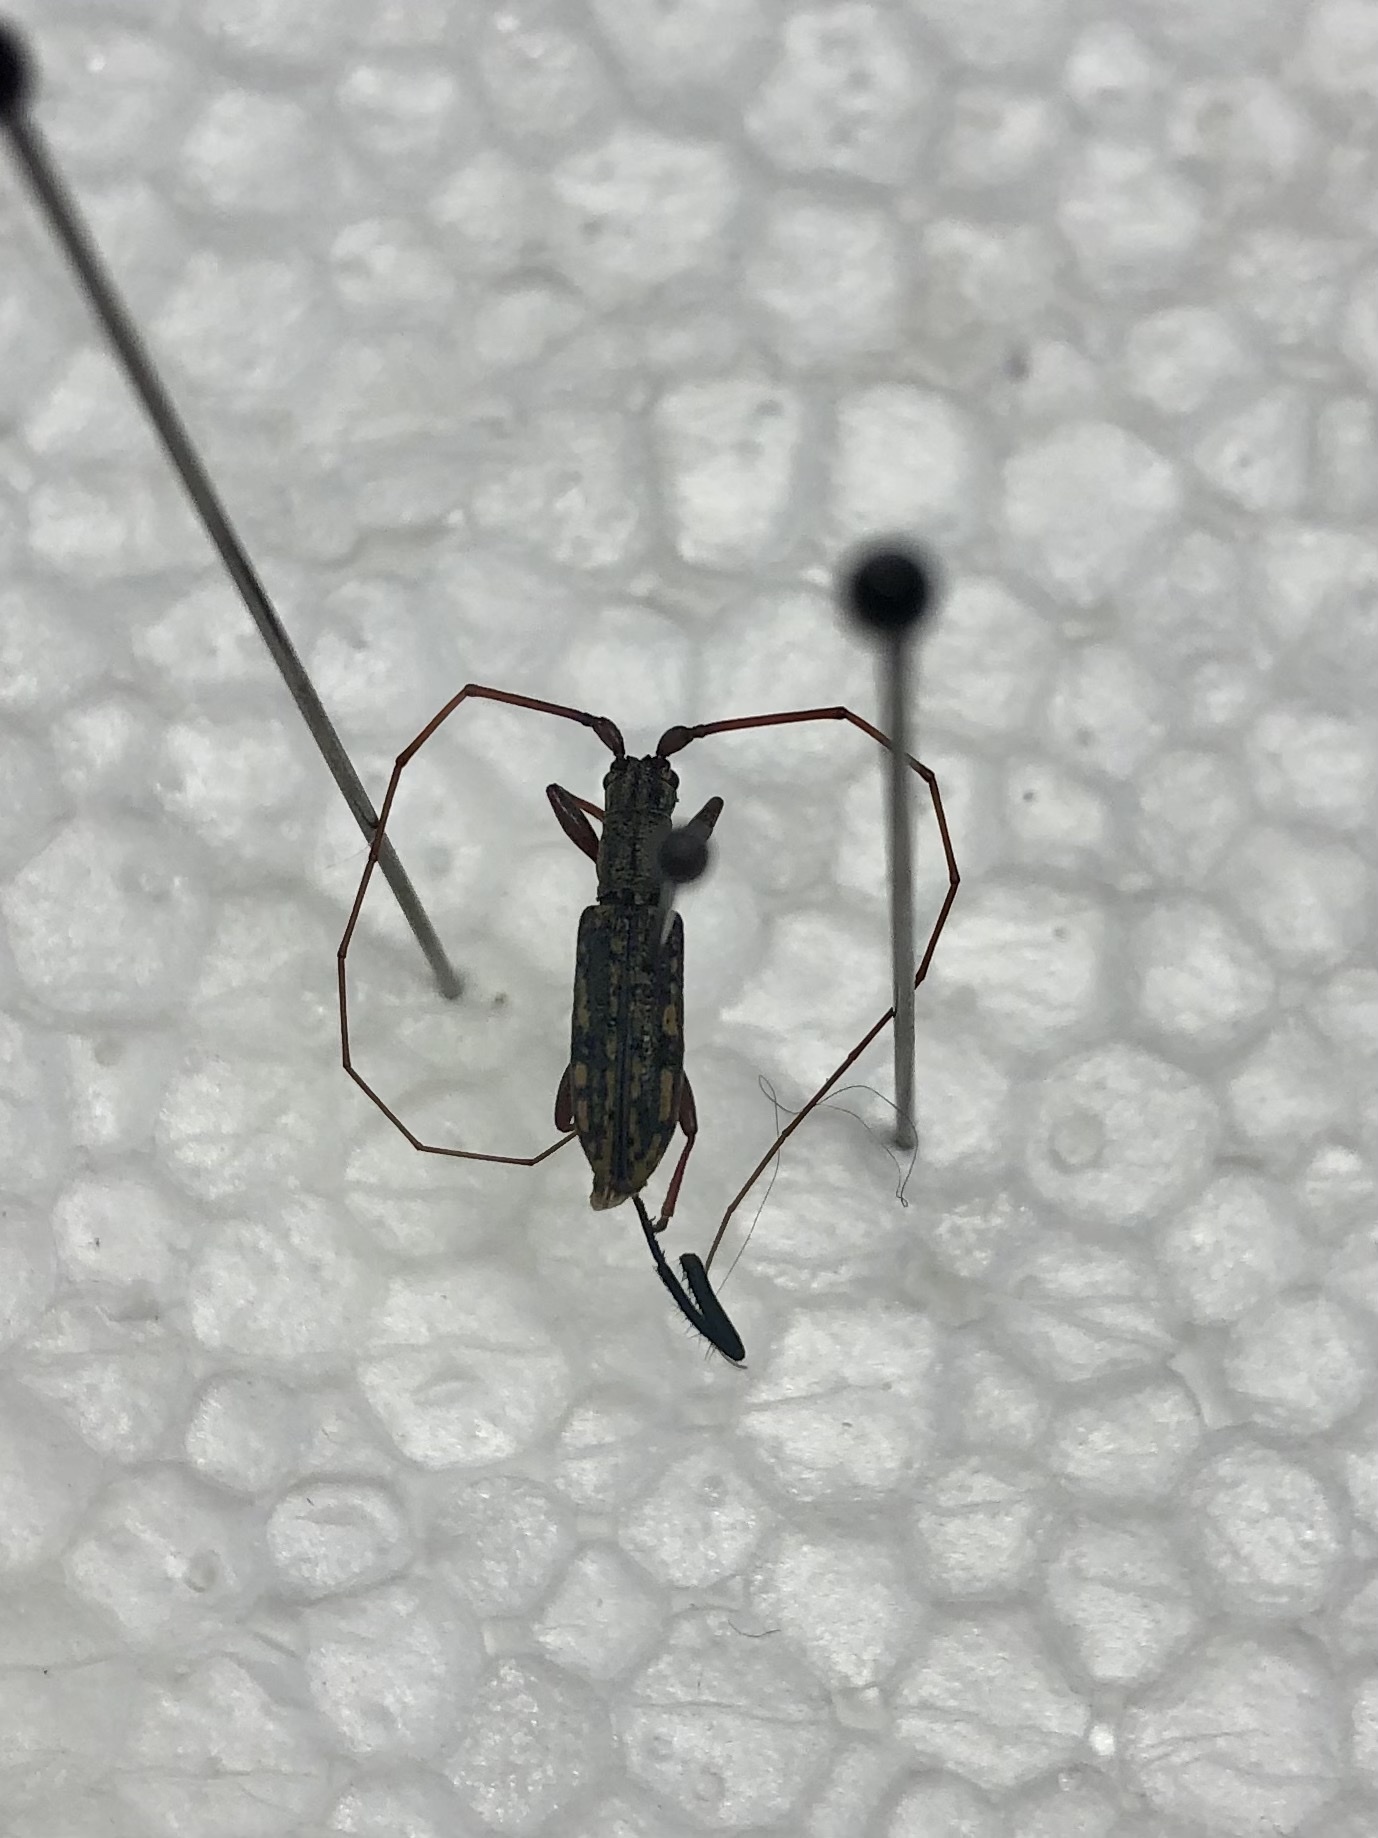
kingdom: Animalia
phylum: Arthropoda
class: Insecta
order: Coleoptera
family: Cerambycidae
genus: Dorcaschema
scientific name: Dorcaschema alternatum
